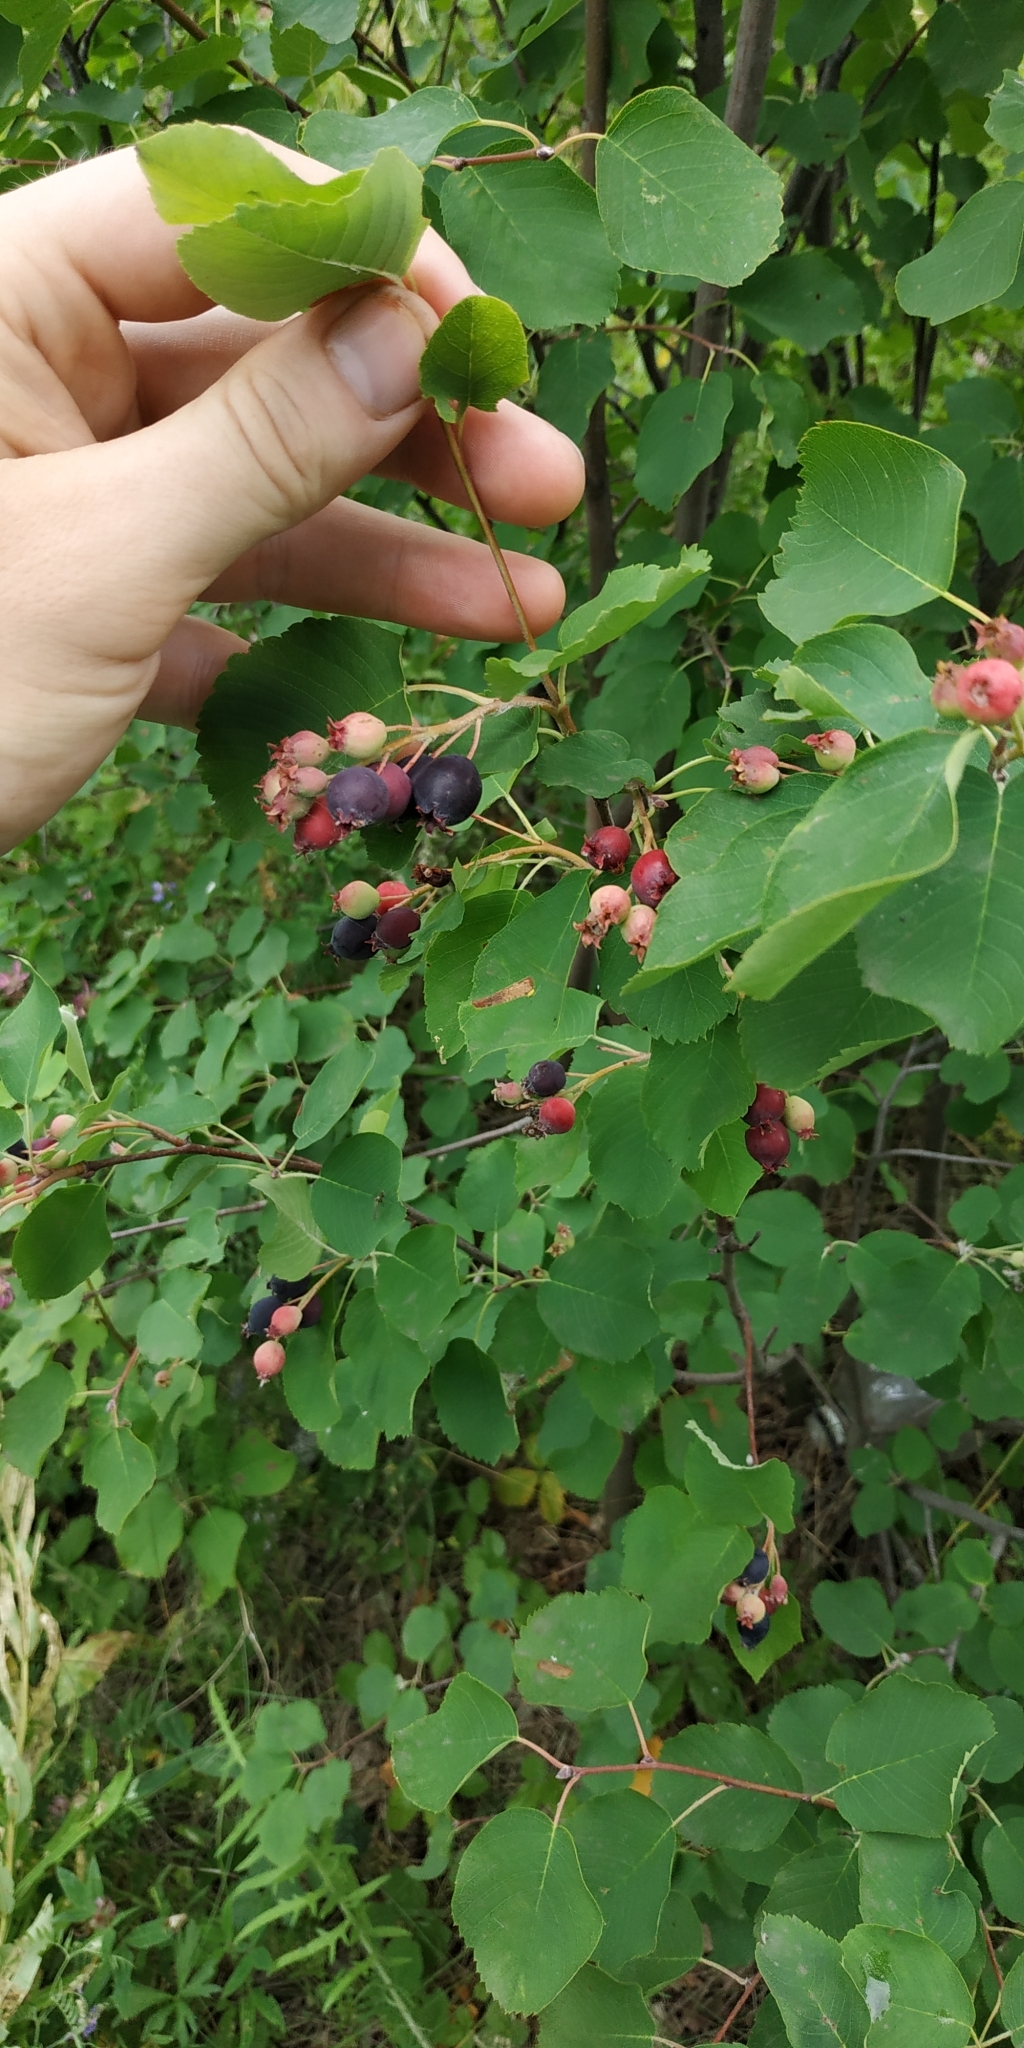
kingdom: Plantae
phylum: Tracheophyta
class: Magnoliopsida
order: Rosales
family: Rosaceae
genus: Amelanchier
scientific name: Amelanchier alnifolia
